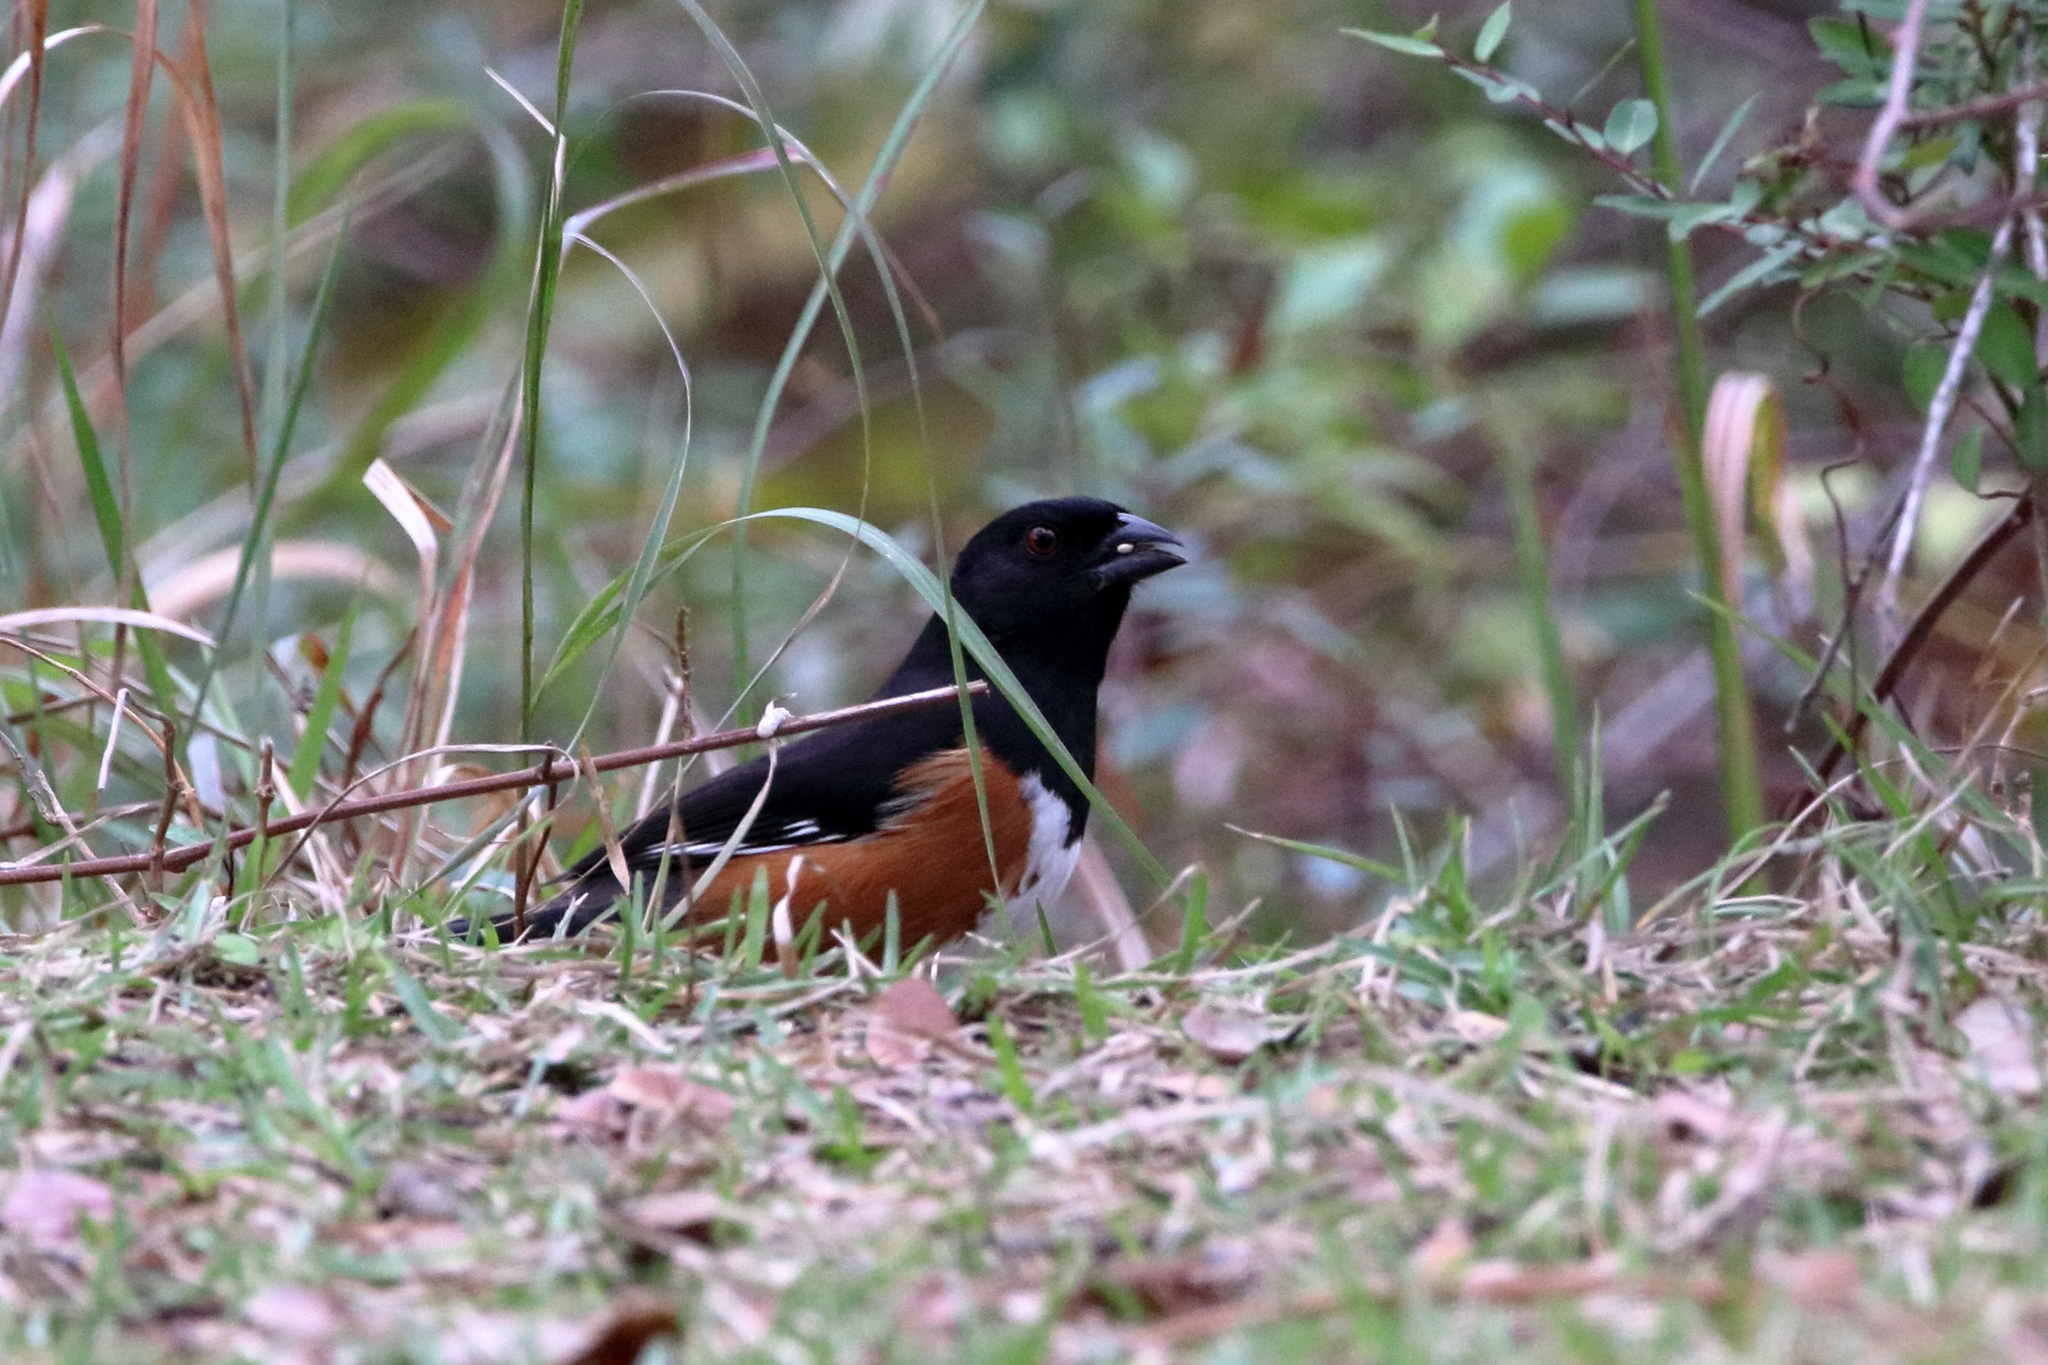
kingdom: Animalia
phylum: Chordata
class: Aves
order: Passeriformes
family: Passerellidae
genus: Pipilo
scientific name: Pipilo erythrophthalmus
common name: Eastern towhee
